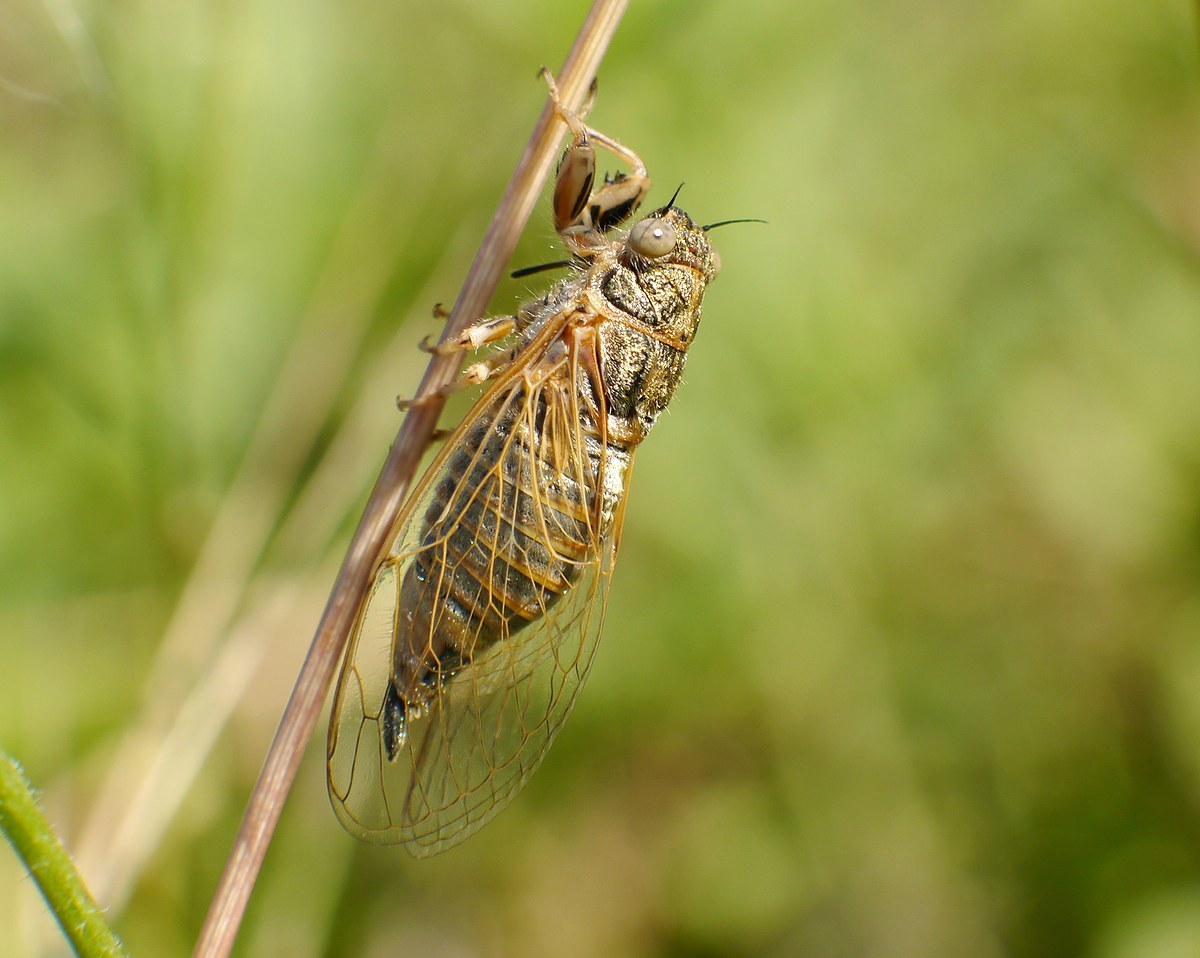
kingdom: Animalia
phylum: Arthropoda
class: Insecta
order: Hemiptera
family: Cicadidae
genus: Oligoglena
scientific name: Oligoglena tibialis
